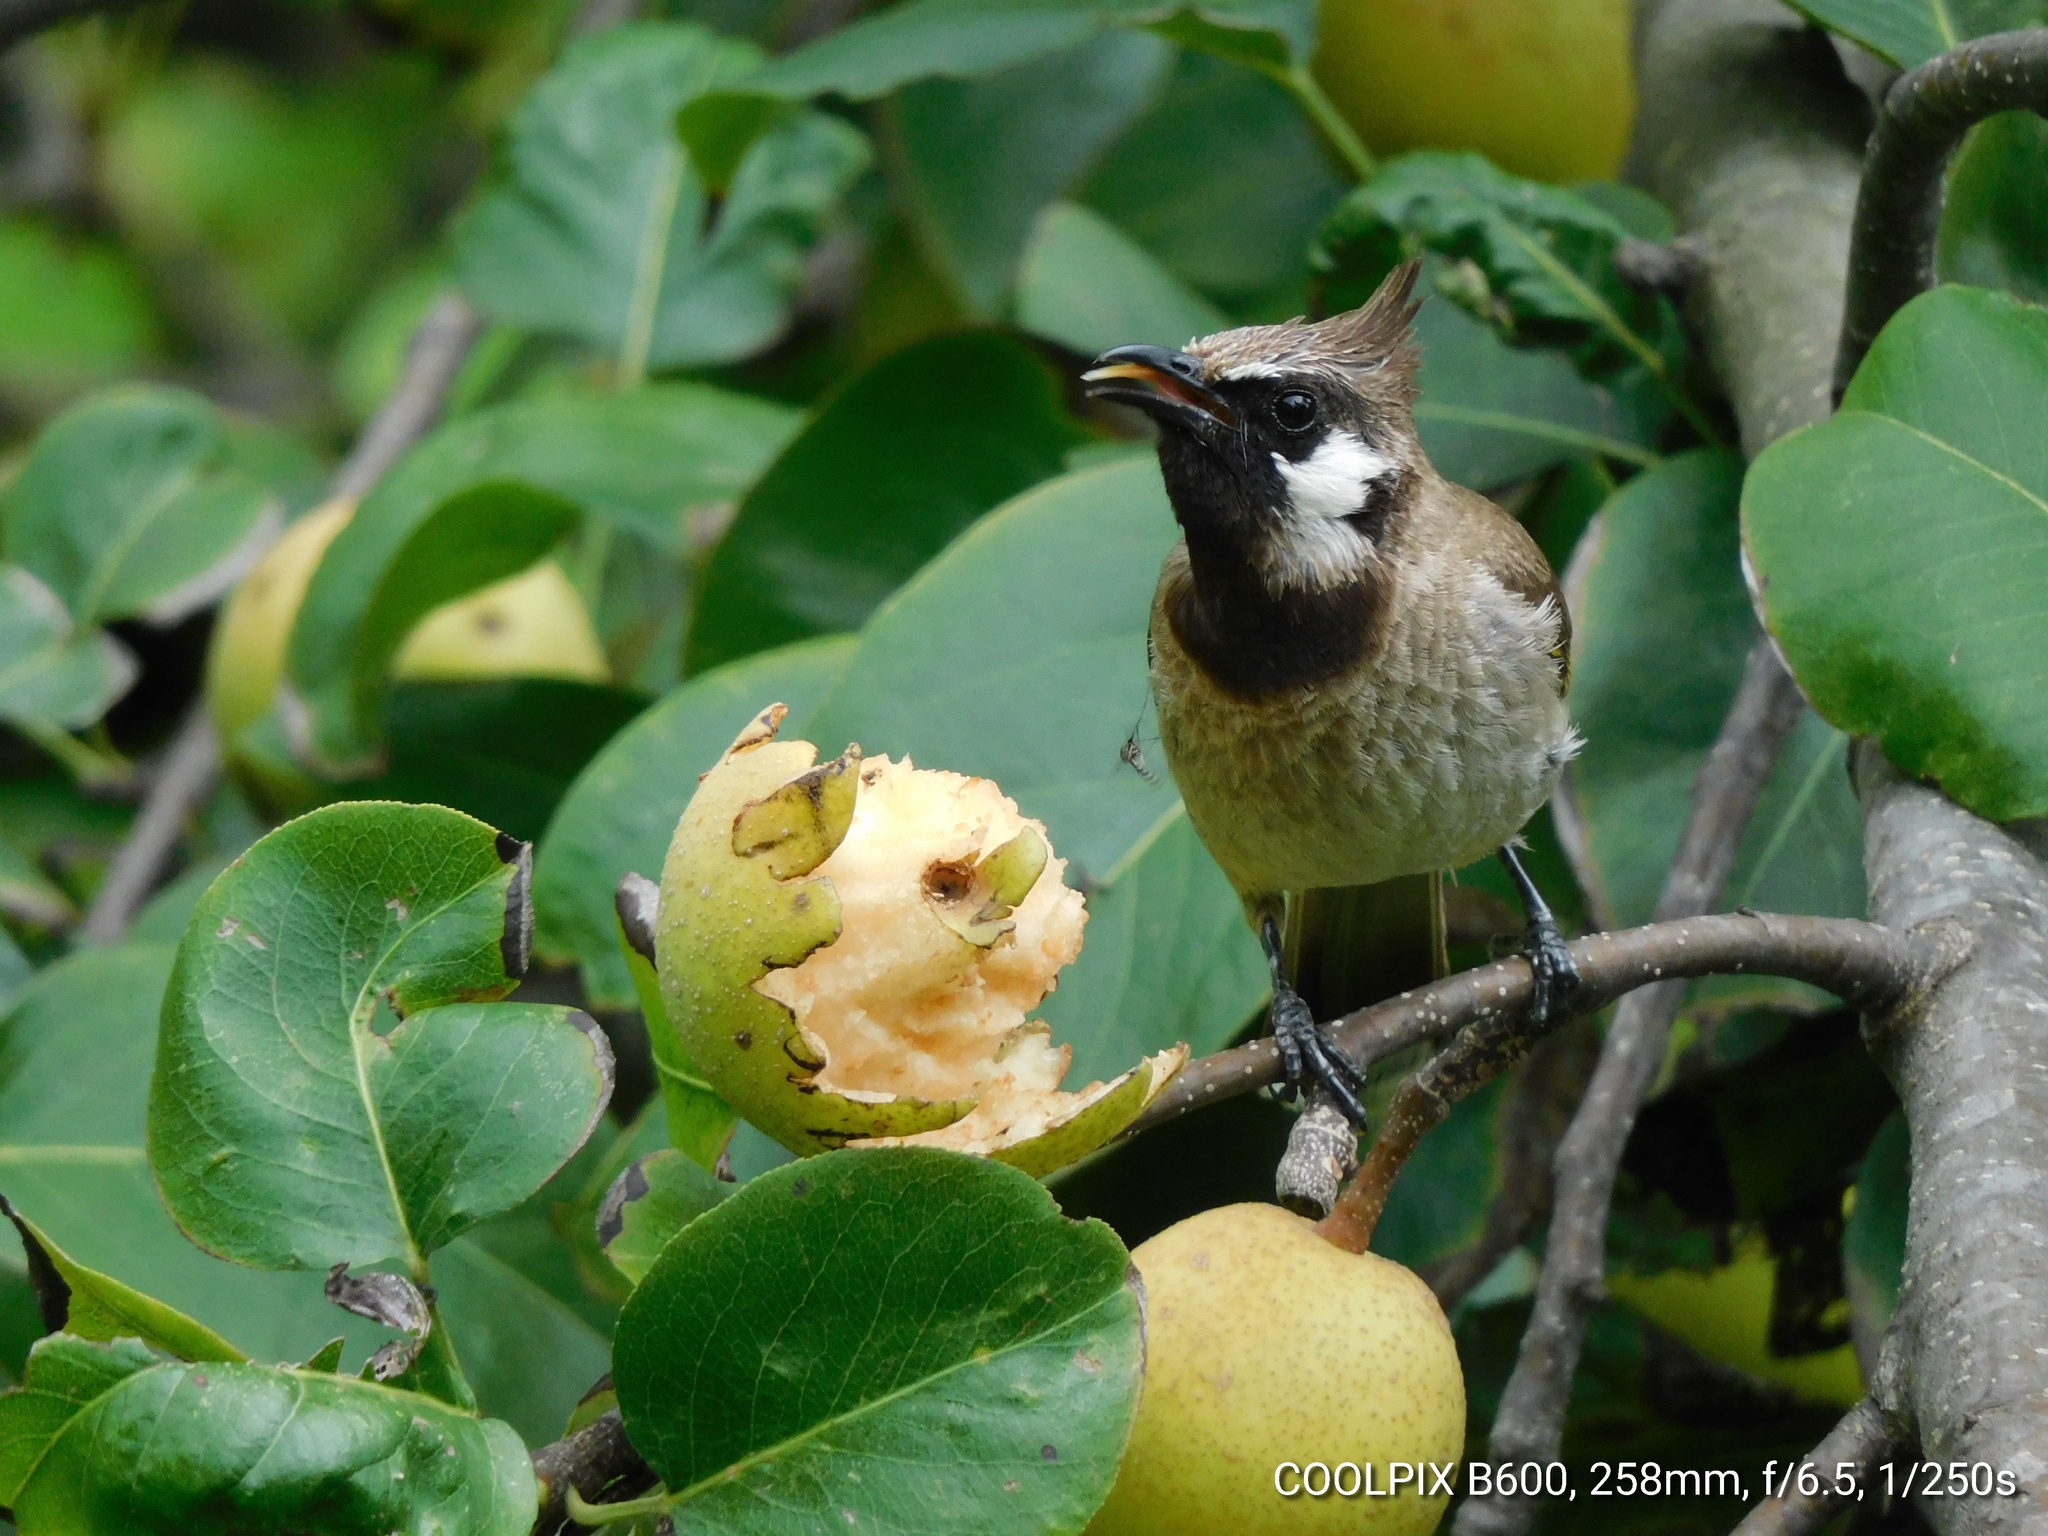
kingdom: Animalia
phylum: Chordata
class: Aves
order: Passeriformes
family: Pycnonotidae
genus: Pycnonotus
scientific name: Pycnonotus leucogenys
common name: Himalayan bulbul
